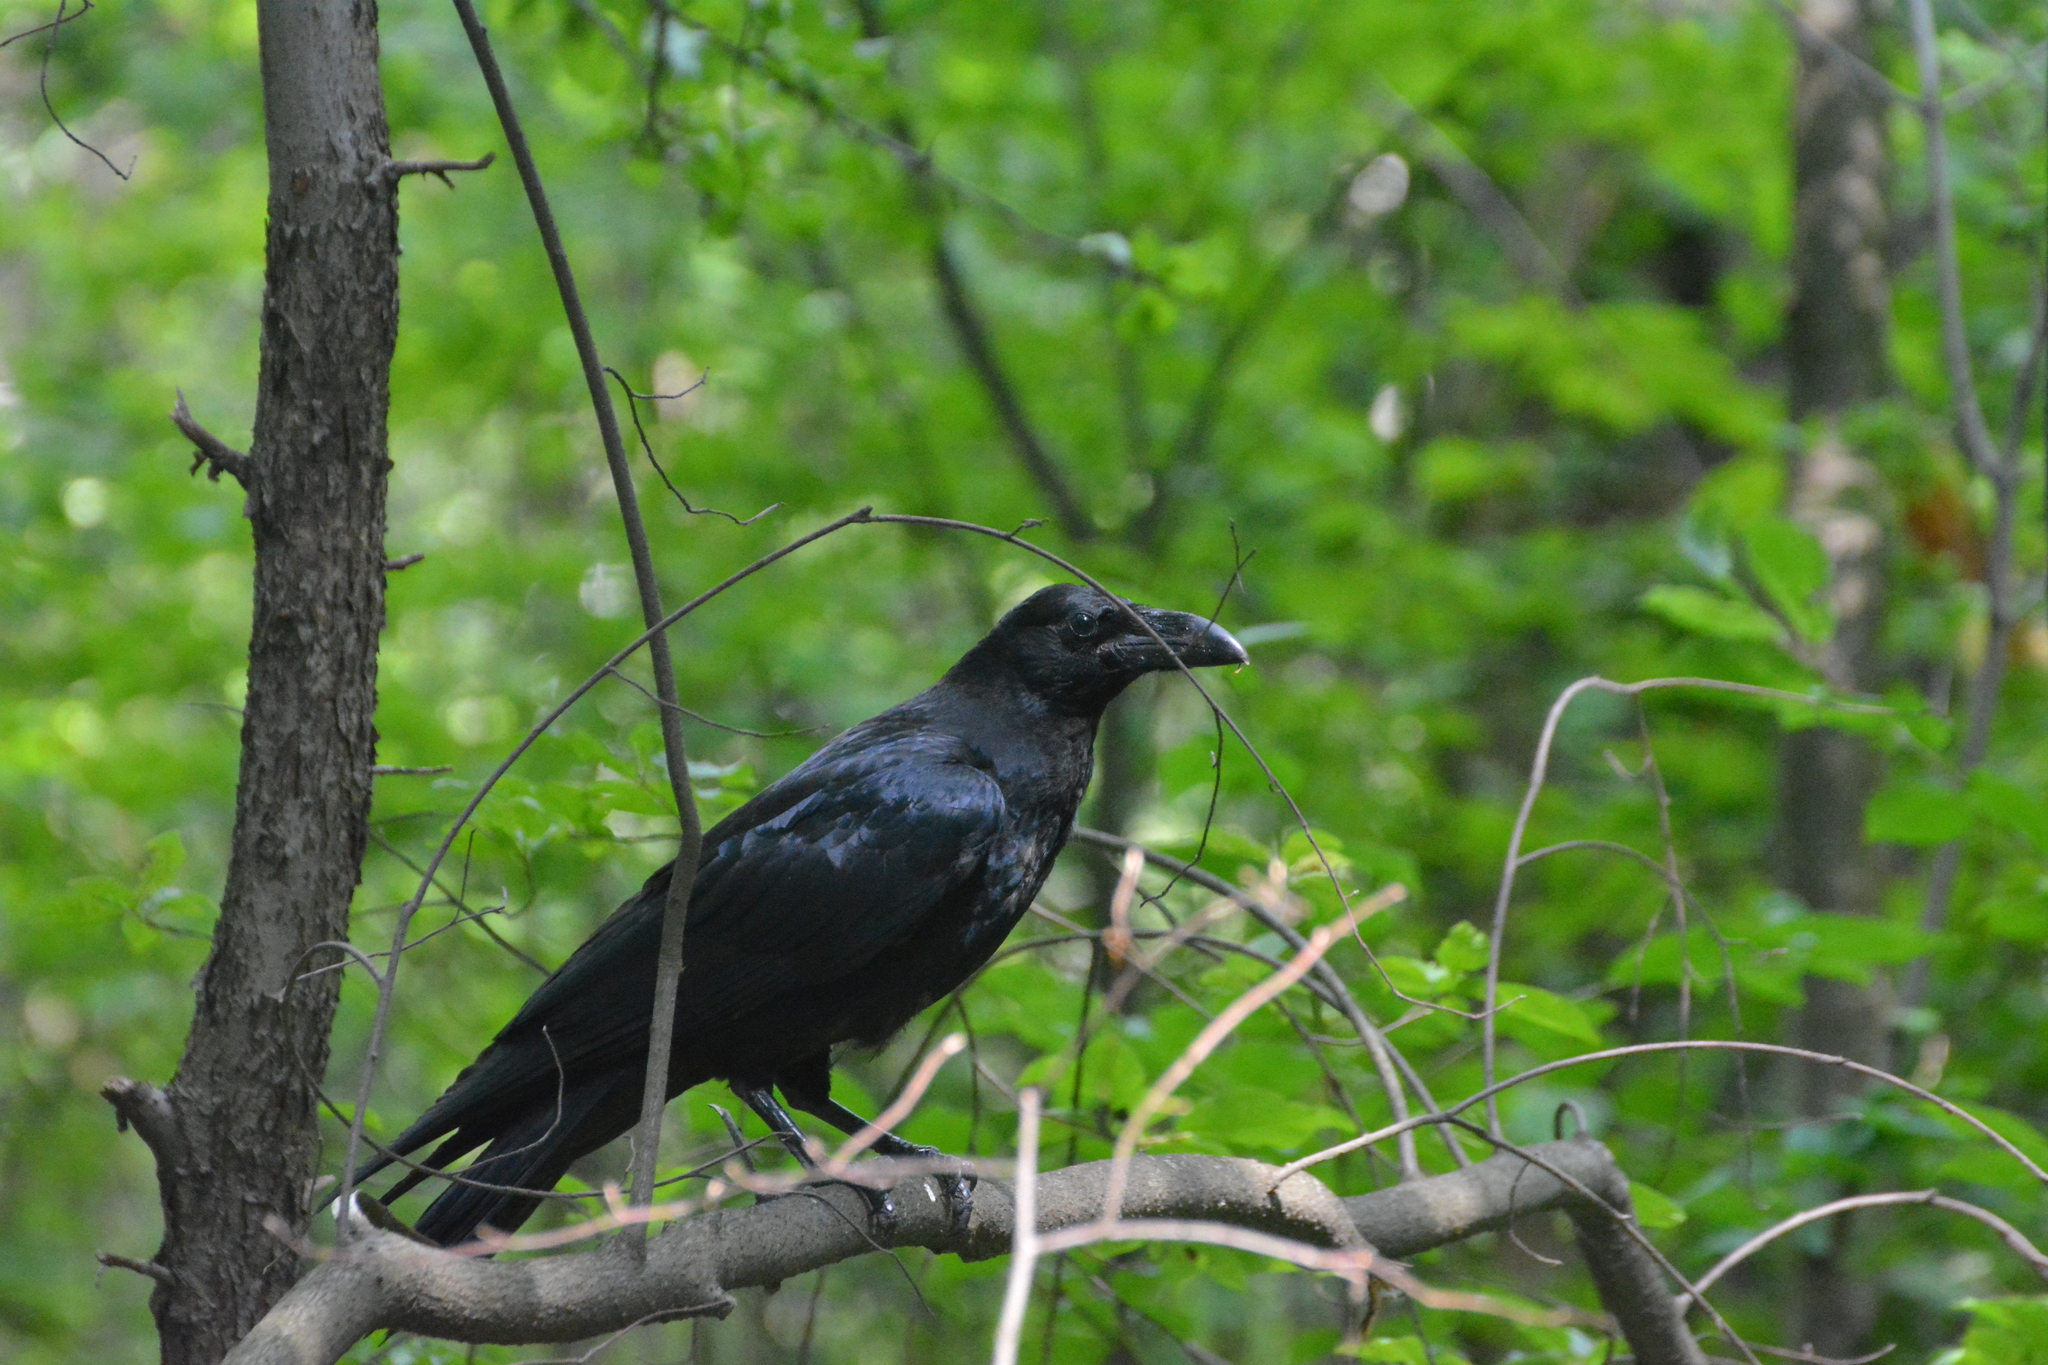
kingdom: Animalia
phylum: Chordata
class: Aves
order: Passeriformes
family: Corvidae
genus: Corvus
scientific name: Corvus corax
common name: Common raven
